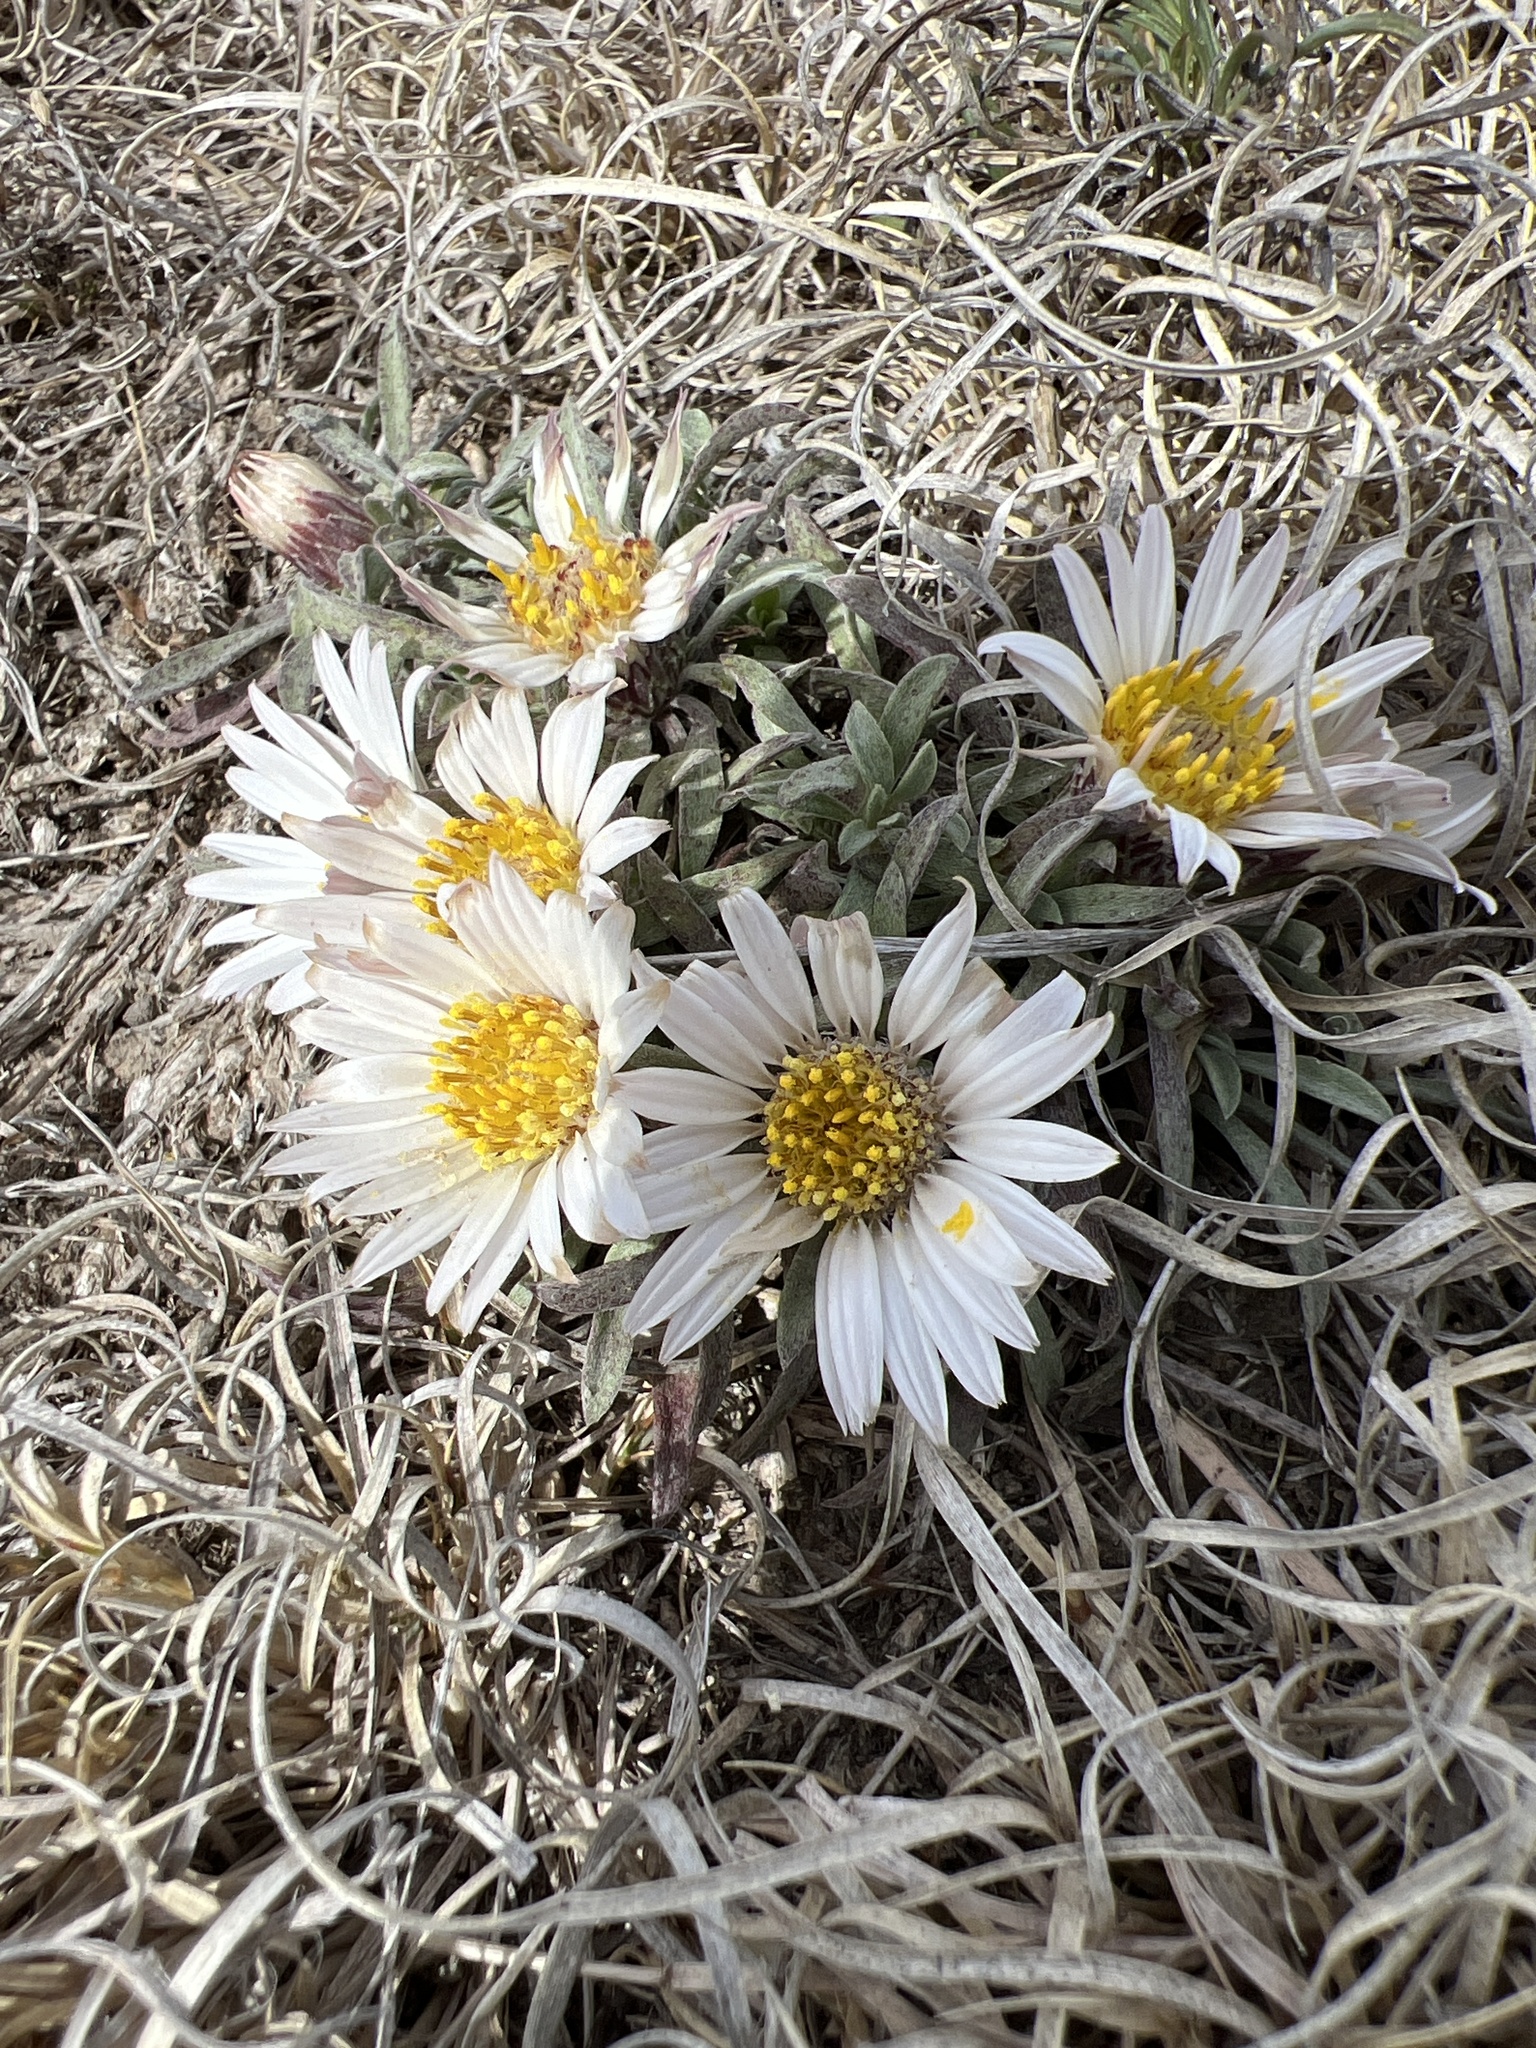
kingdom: Plantae
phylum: Tracheophyta
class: Magnoliopsida
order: Asterales
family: Asteraceae
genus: Townsendia
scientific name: Townsendia exscapa
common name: Dwarf townsendia
